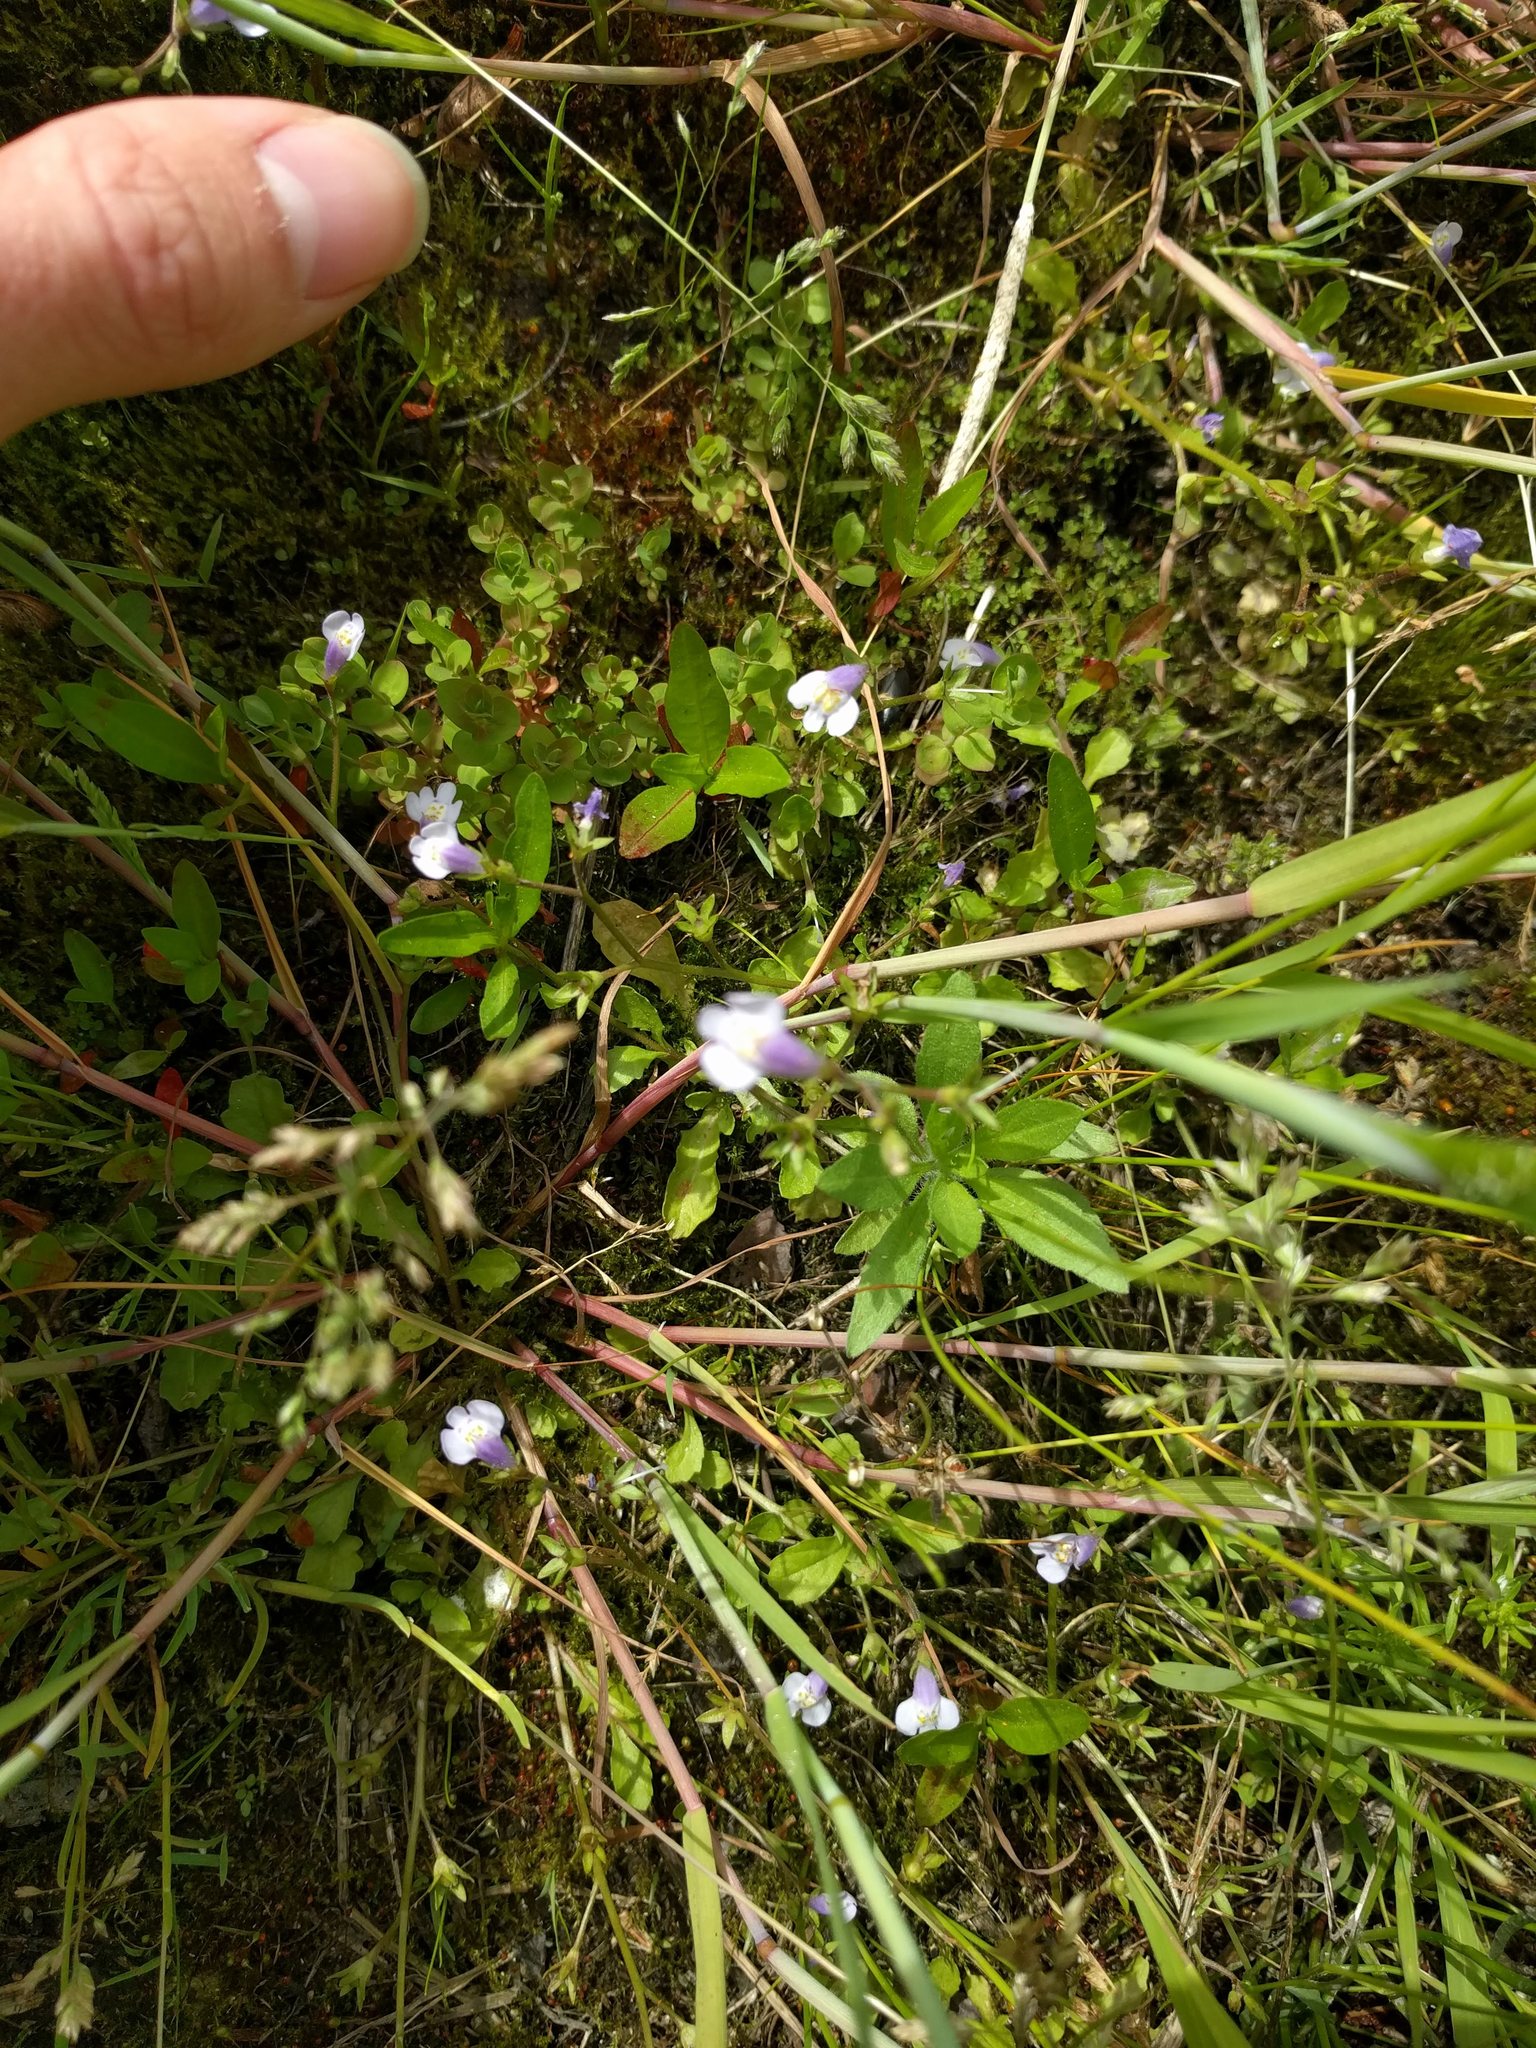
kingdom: Plantae
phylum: Tracheophyta
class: Magnoliopsida
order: Lamiales
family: Mazaceae
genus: Mazus
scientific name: Mazus pumilus
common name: Japanese mazus
